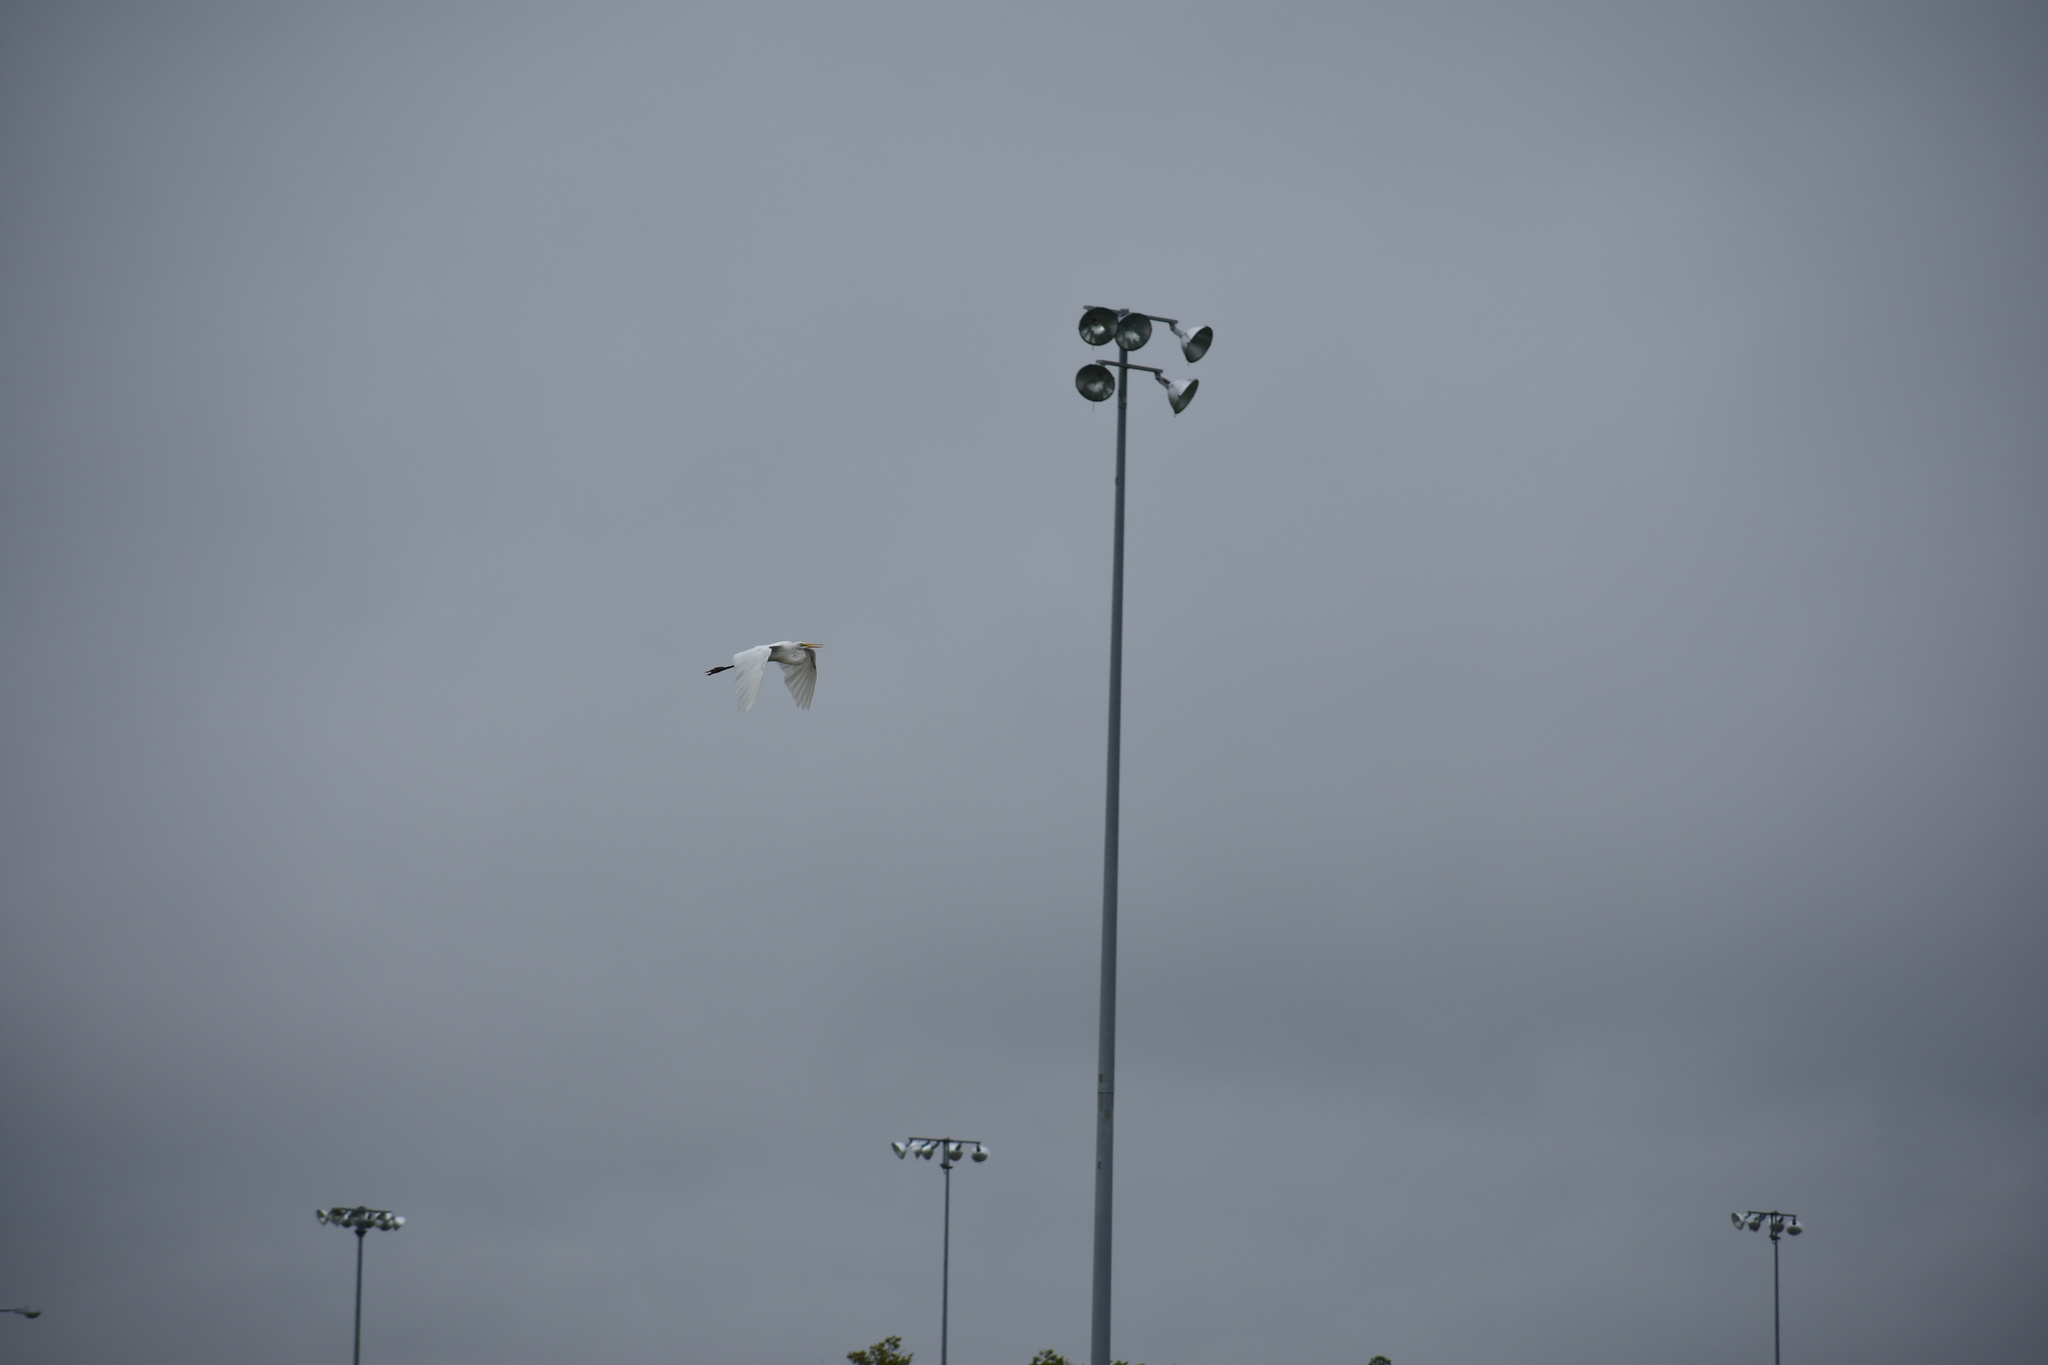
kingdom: Animalia
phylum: Chordata
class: Aves
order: Pelecaniformes
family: Ardeidae
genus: Ardea
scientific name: Ardea alba
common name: Great egret
